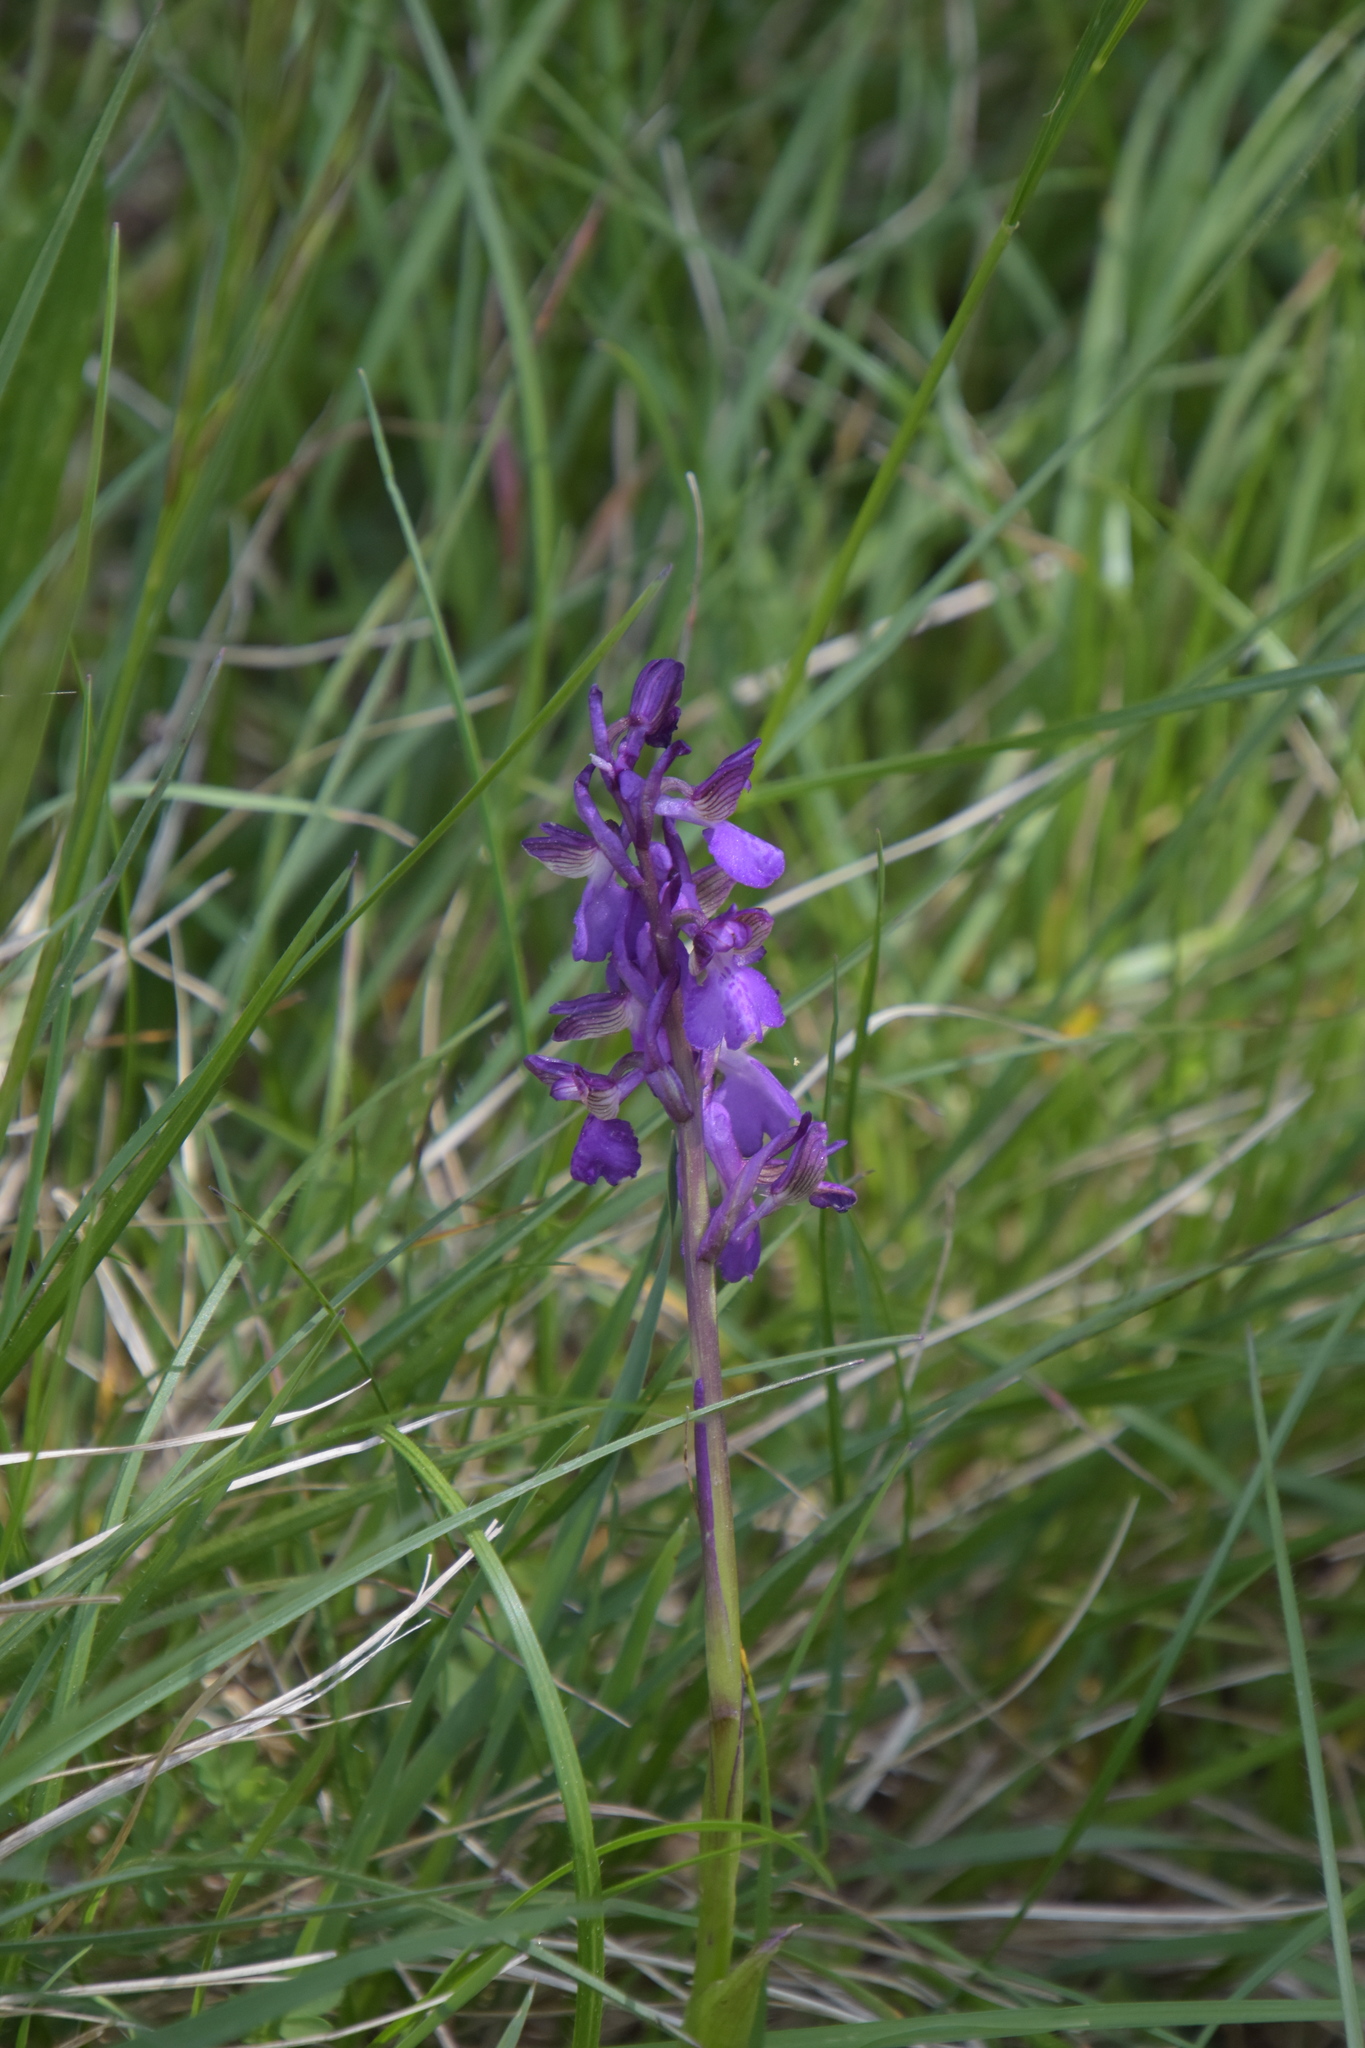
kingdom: Plantae
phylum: Tracheophyta
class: Liliopsida
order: Asparagales
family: Orchidaceae
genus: Anacamptis
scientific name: Anacamptis morio
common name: Green-winged orchid
